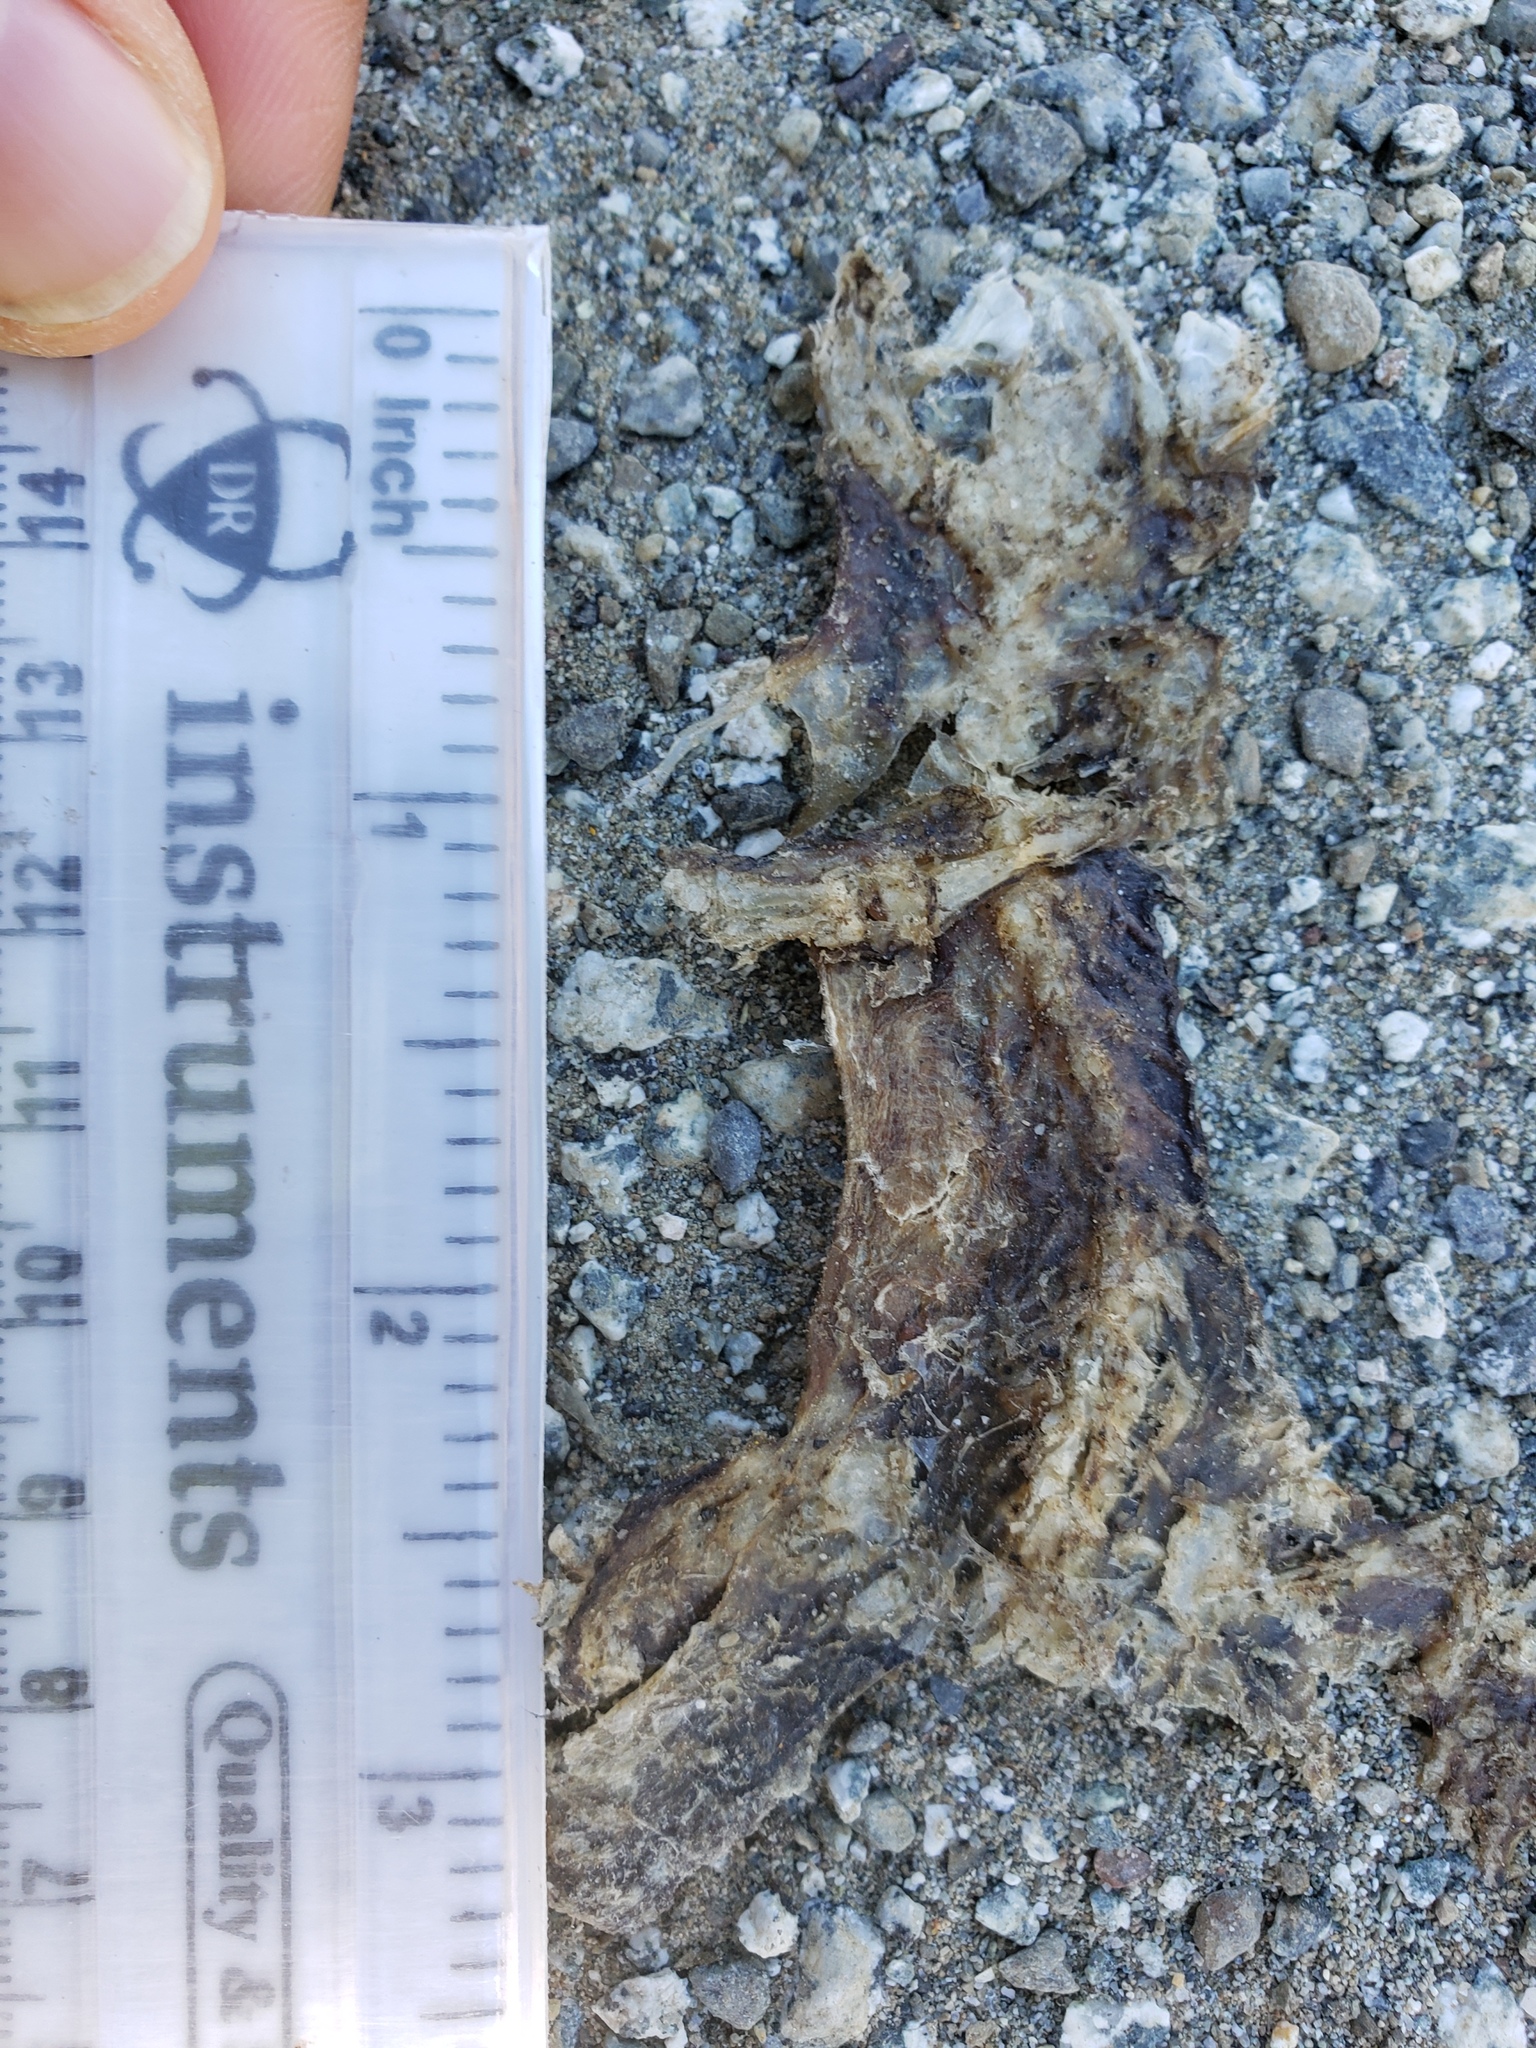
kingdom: Animalia
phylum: Chordata
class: Amphibia
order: Caudata
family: Salamandridae
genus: Taricha
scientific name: Taricha
